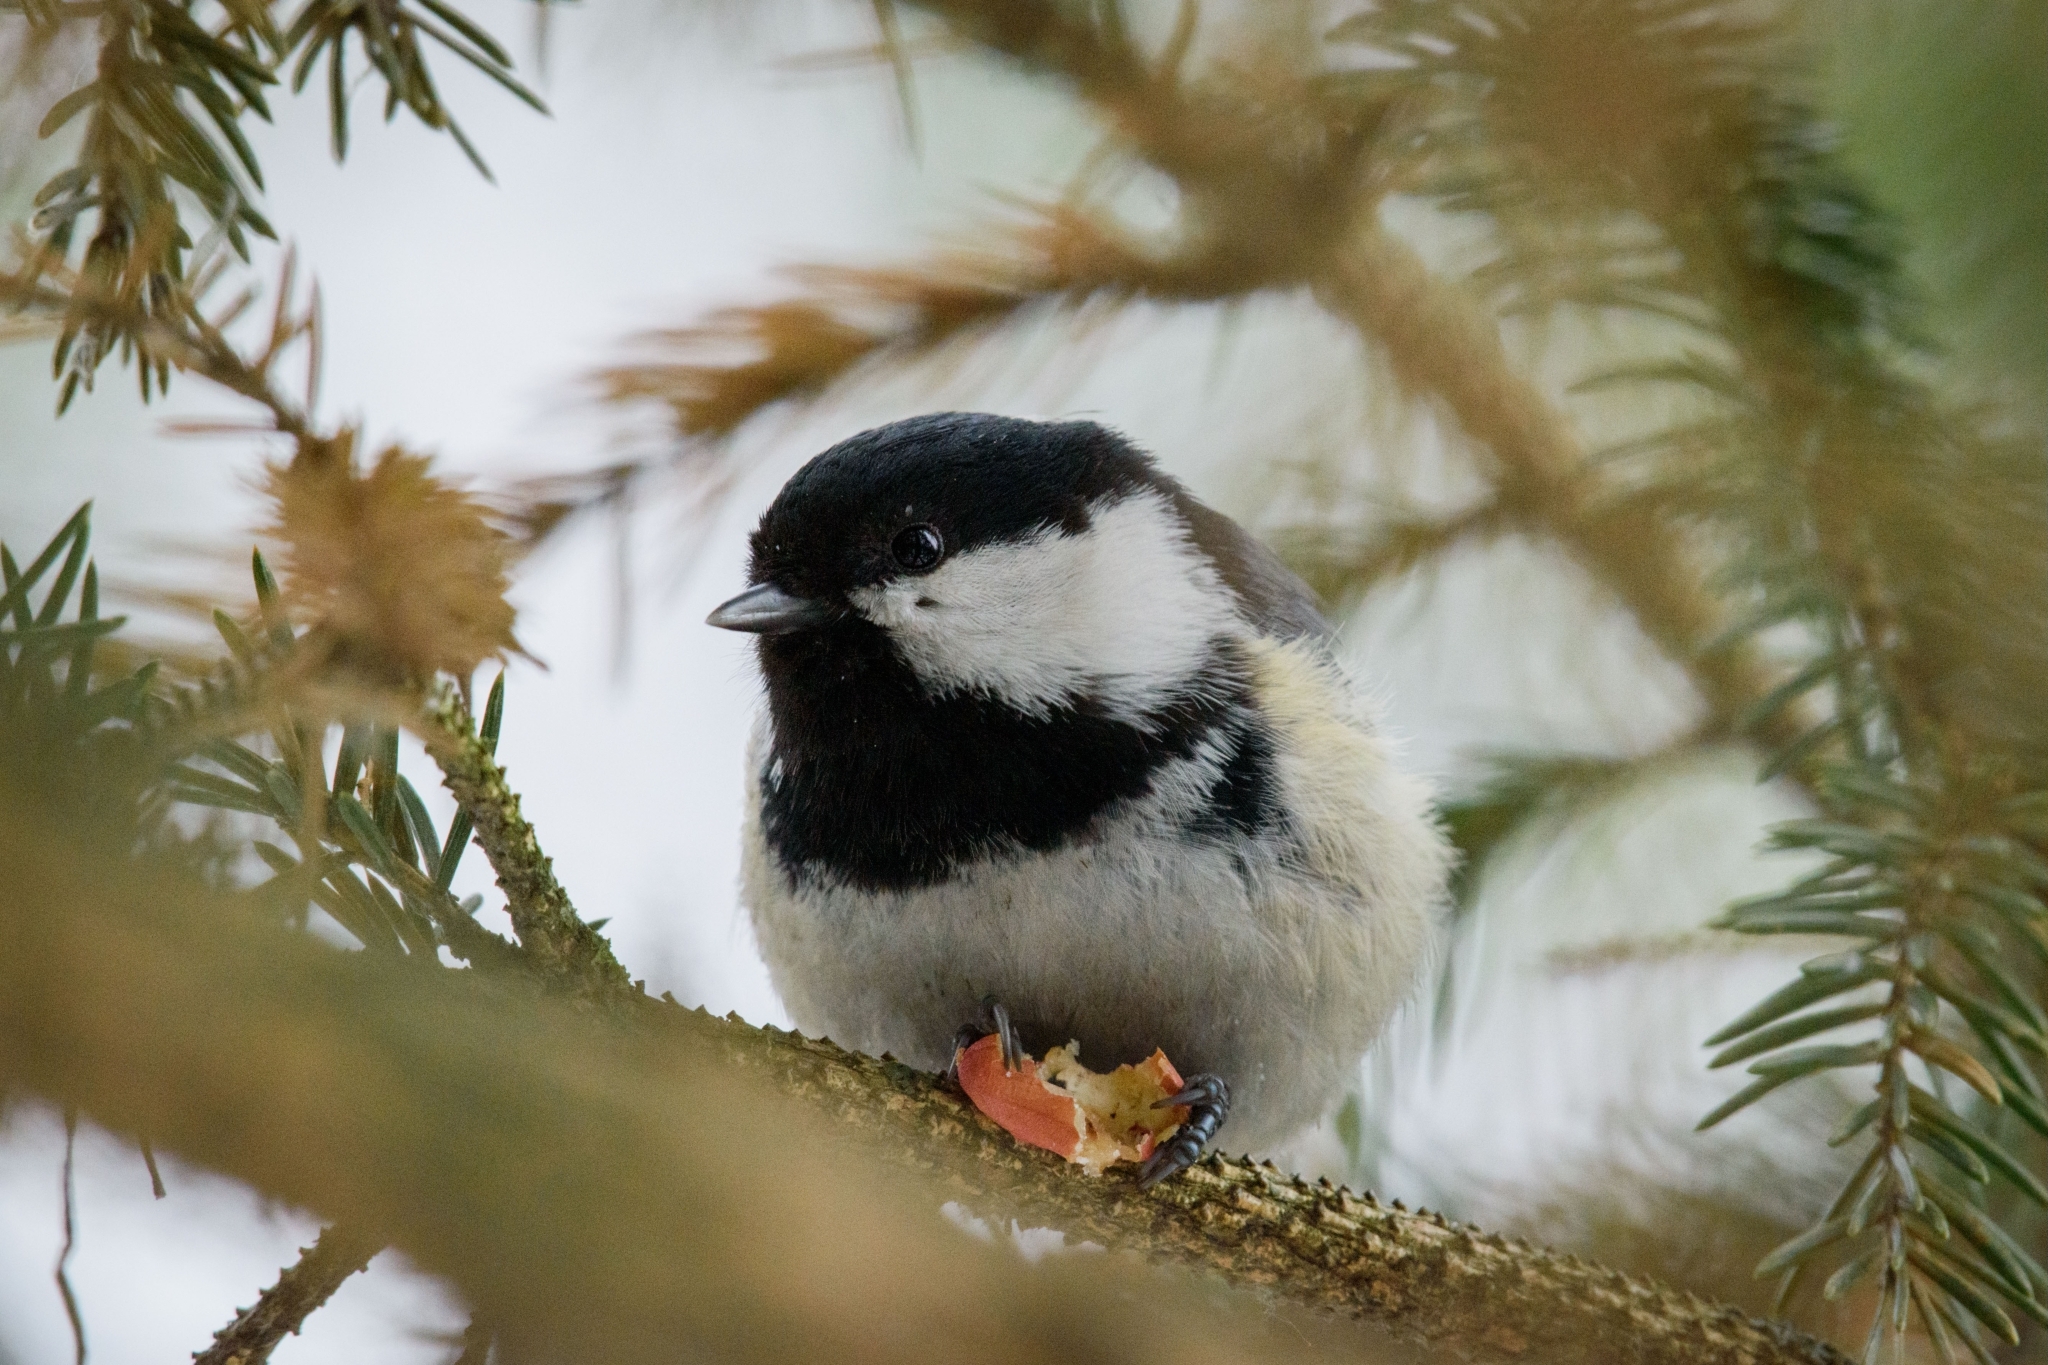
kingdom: Animalia
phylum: Chordata
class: Aves
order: Passeriformes
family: Paridae
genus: Periparus
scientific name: Periparus ater
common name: Coal tit
